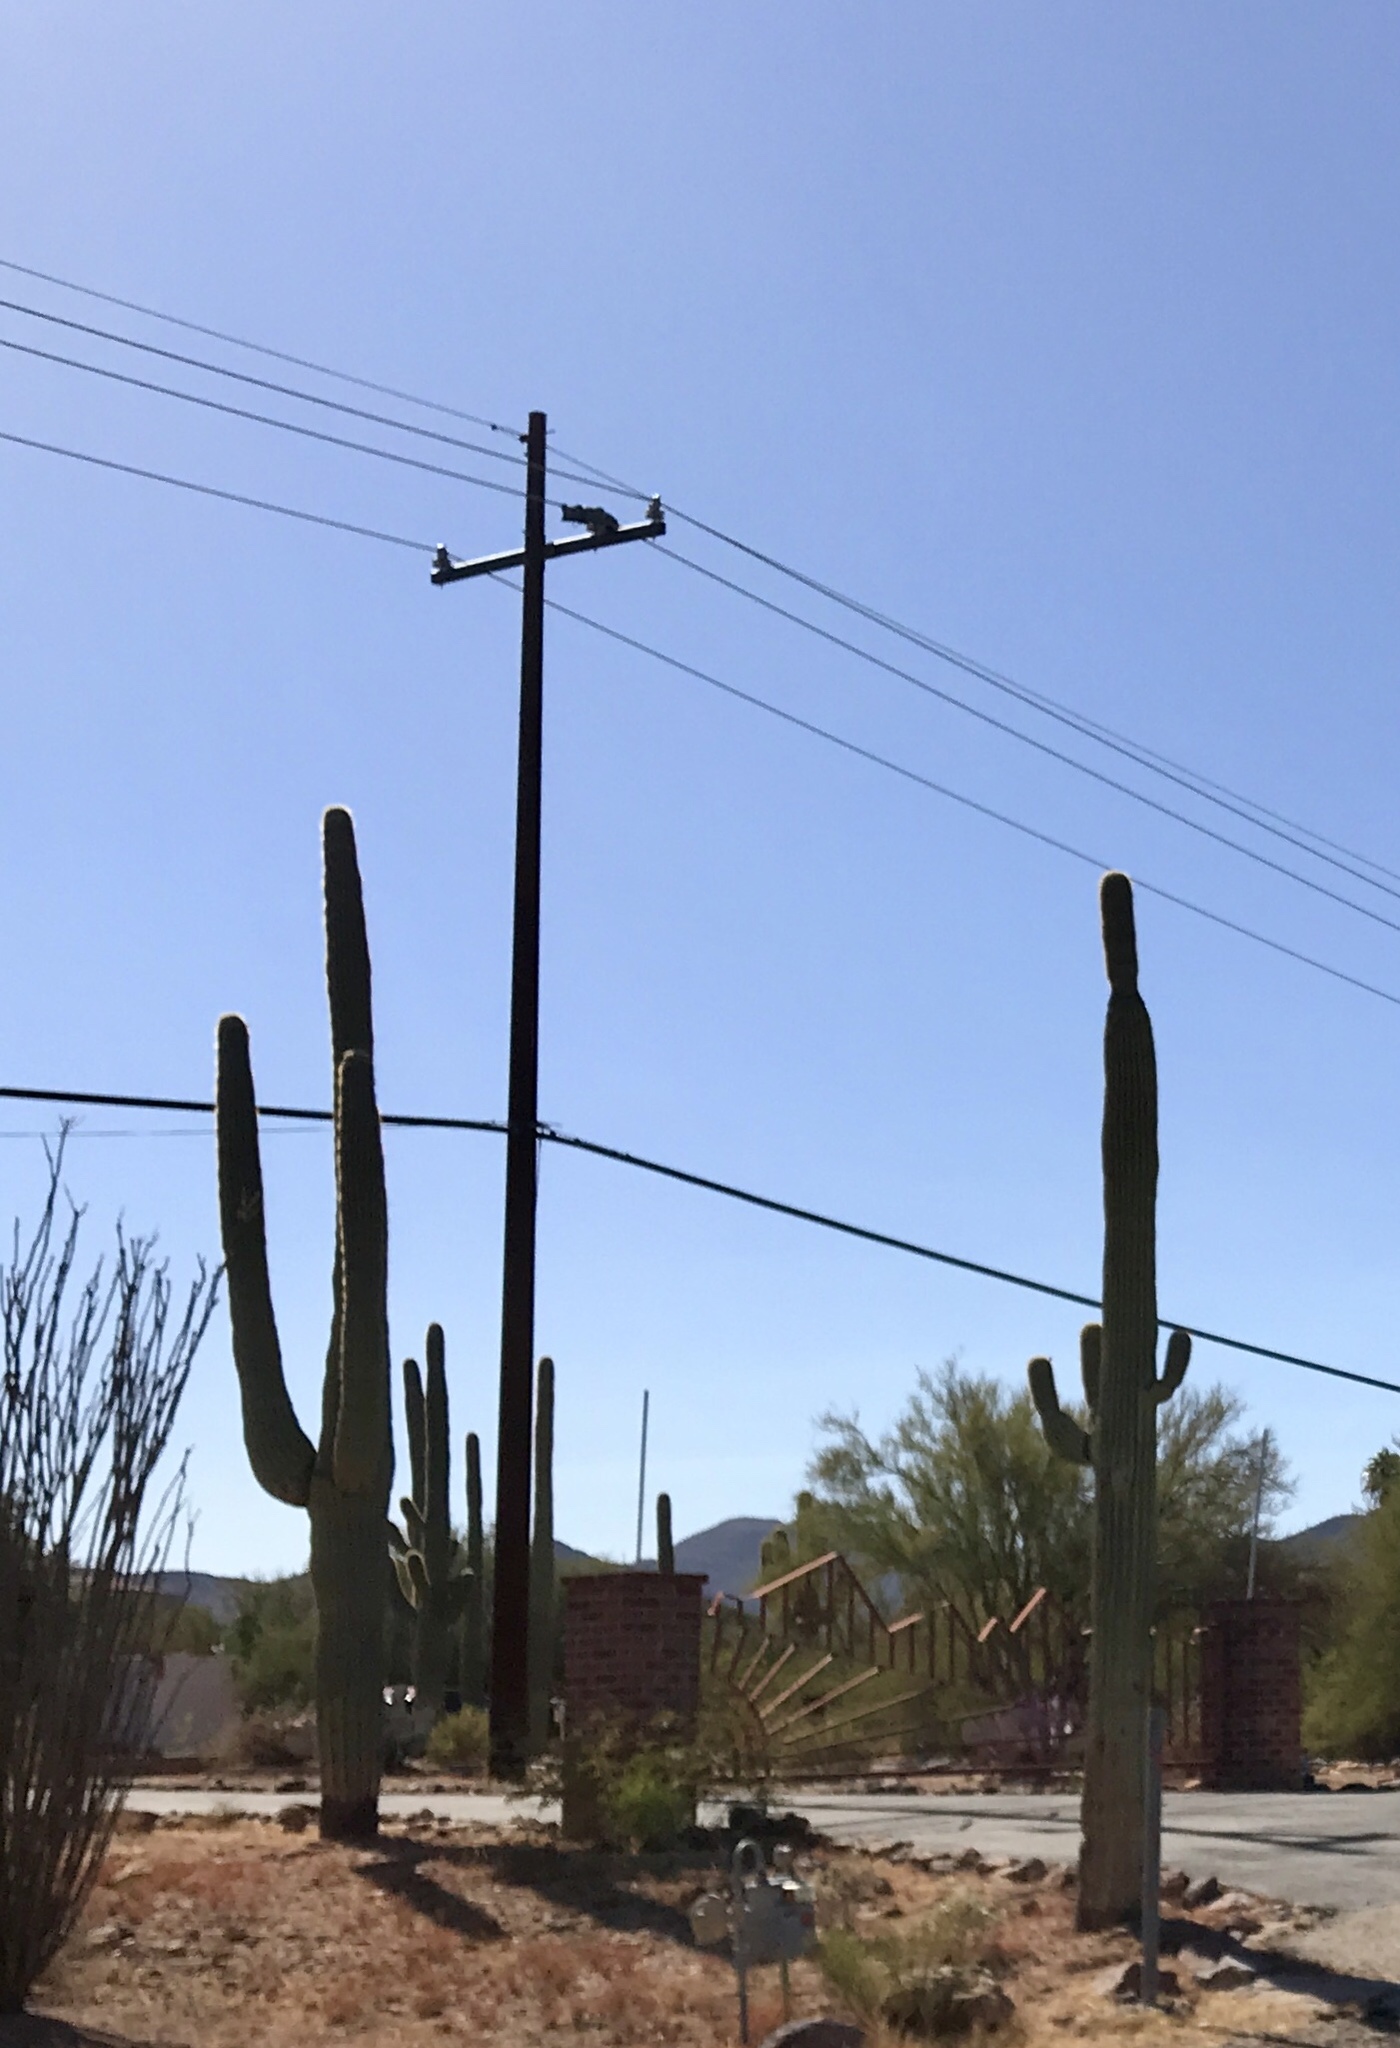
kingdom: Plantae
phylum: Tracheophyta
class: Magnoliopsida
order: Caryophyllales
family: Cactaceae
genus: Carnegiea
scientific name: Carnegiea gigantea
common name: Saguaro
